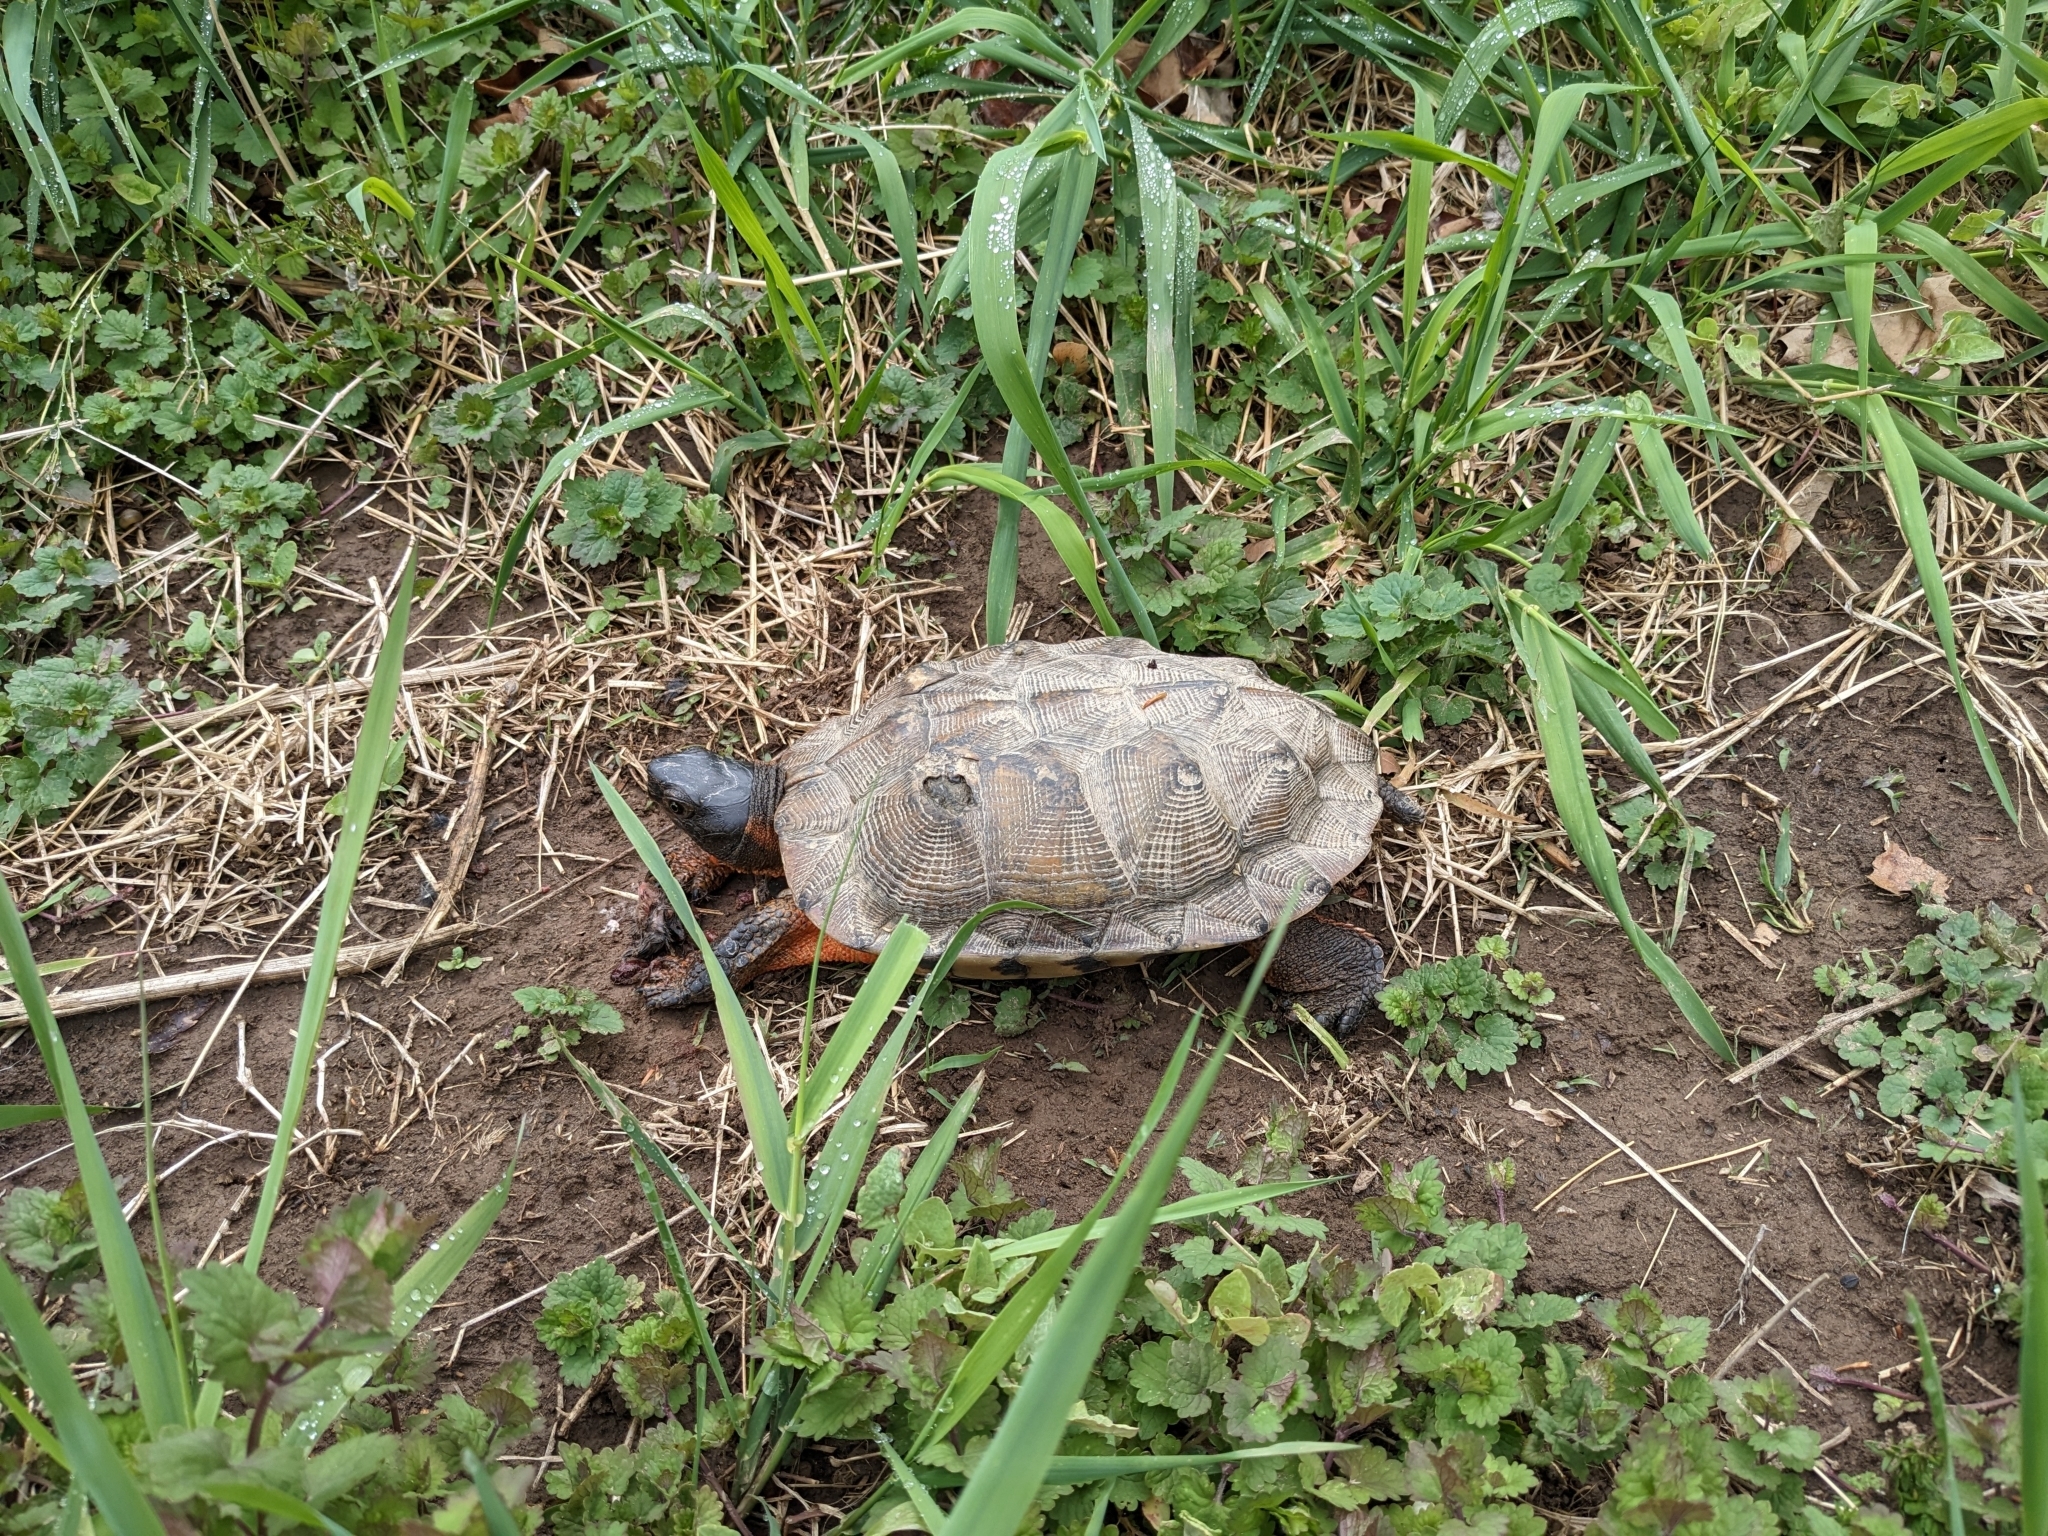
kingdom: Animalia
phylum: Chordata
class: Testudines
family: Emydidae
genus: Glyptemys
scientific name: Glyptemys insculpta
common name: Wood turtle
